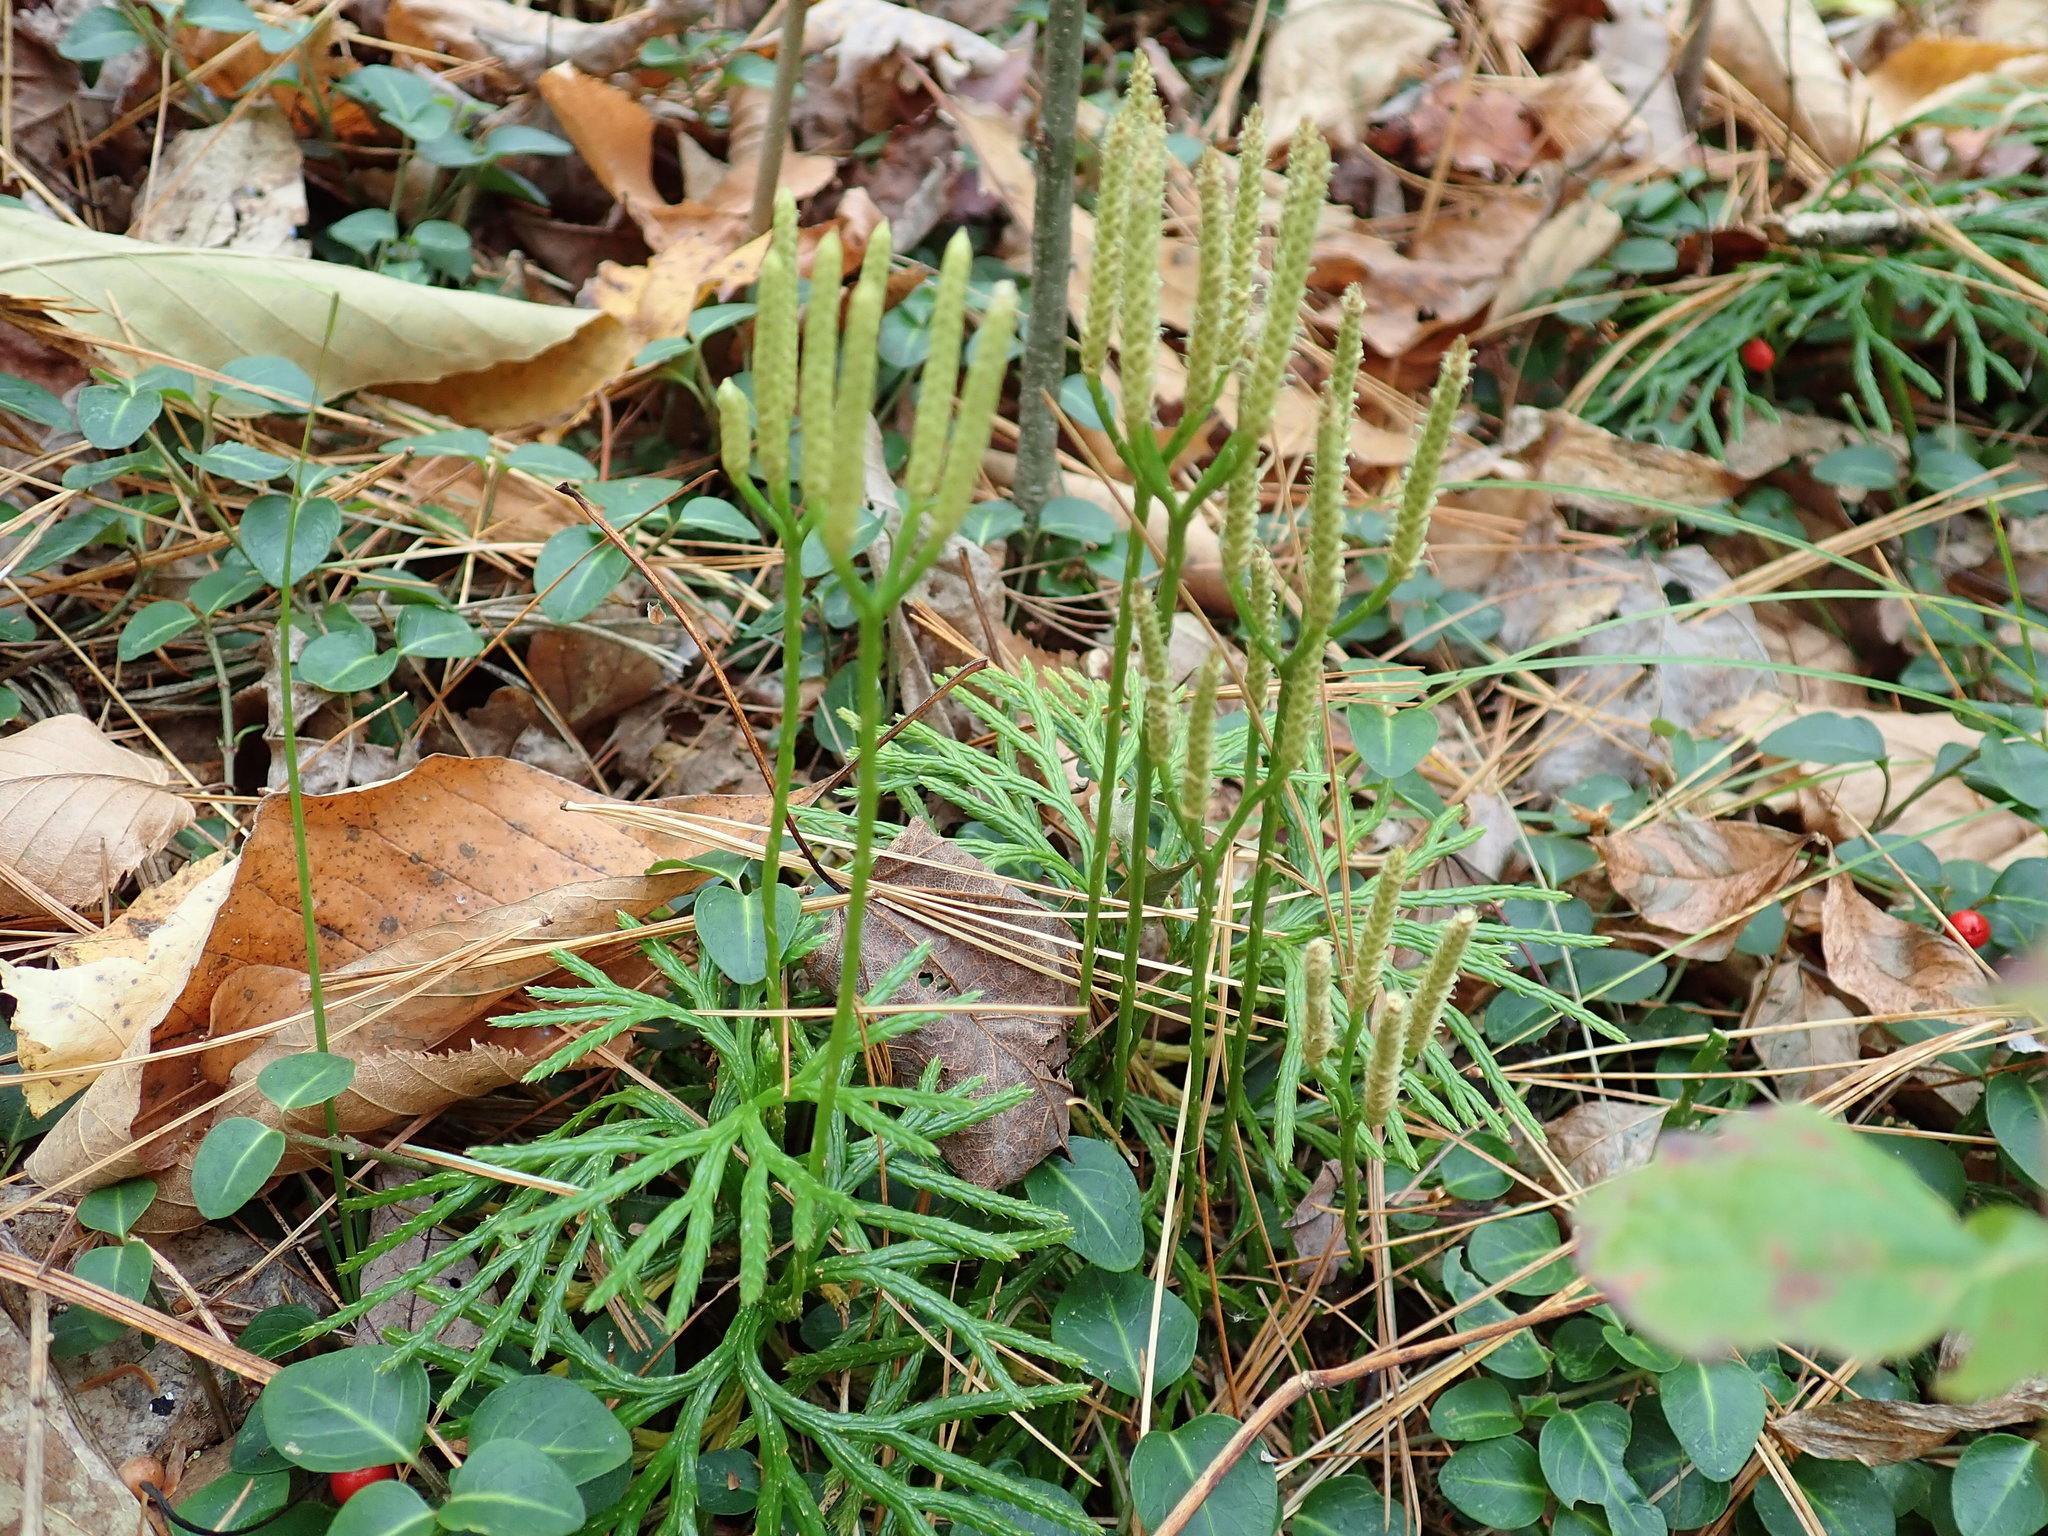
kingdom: Plantae
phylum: Tracheophyta
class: Lycopodiopsida
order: Lycopodiales
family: Lycopodiaceae
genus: Diphasiastrum
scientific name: Diphasiastrum digitatum
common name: Southern running-pine
